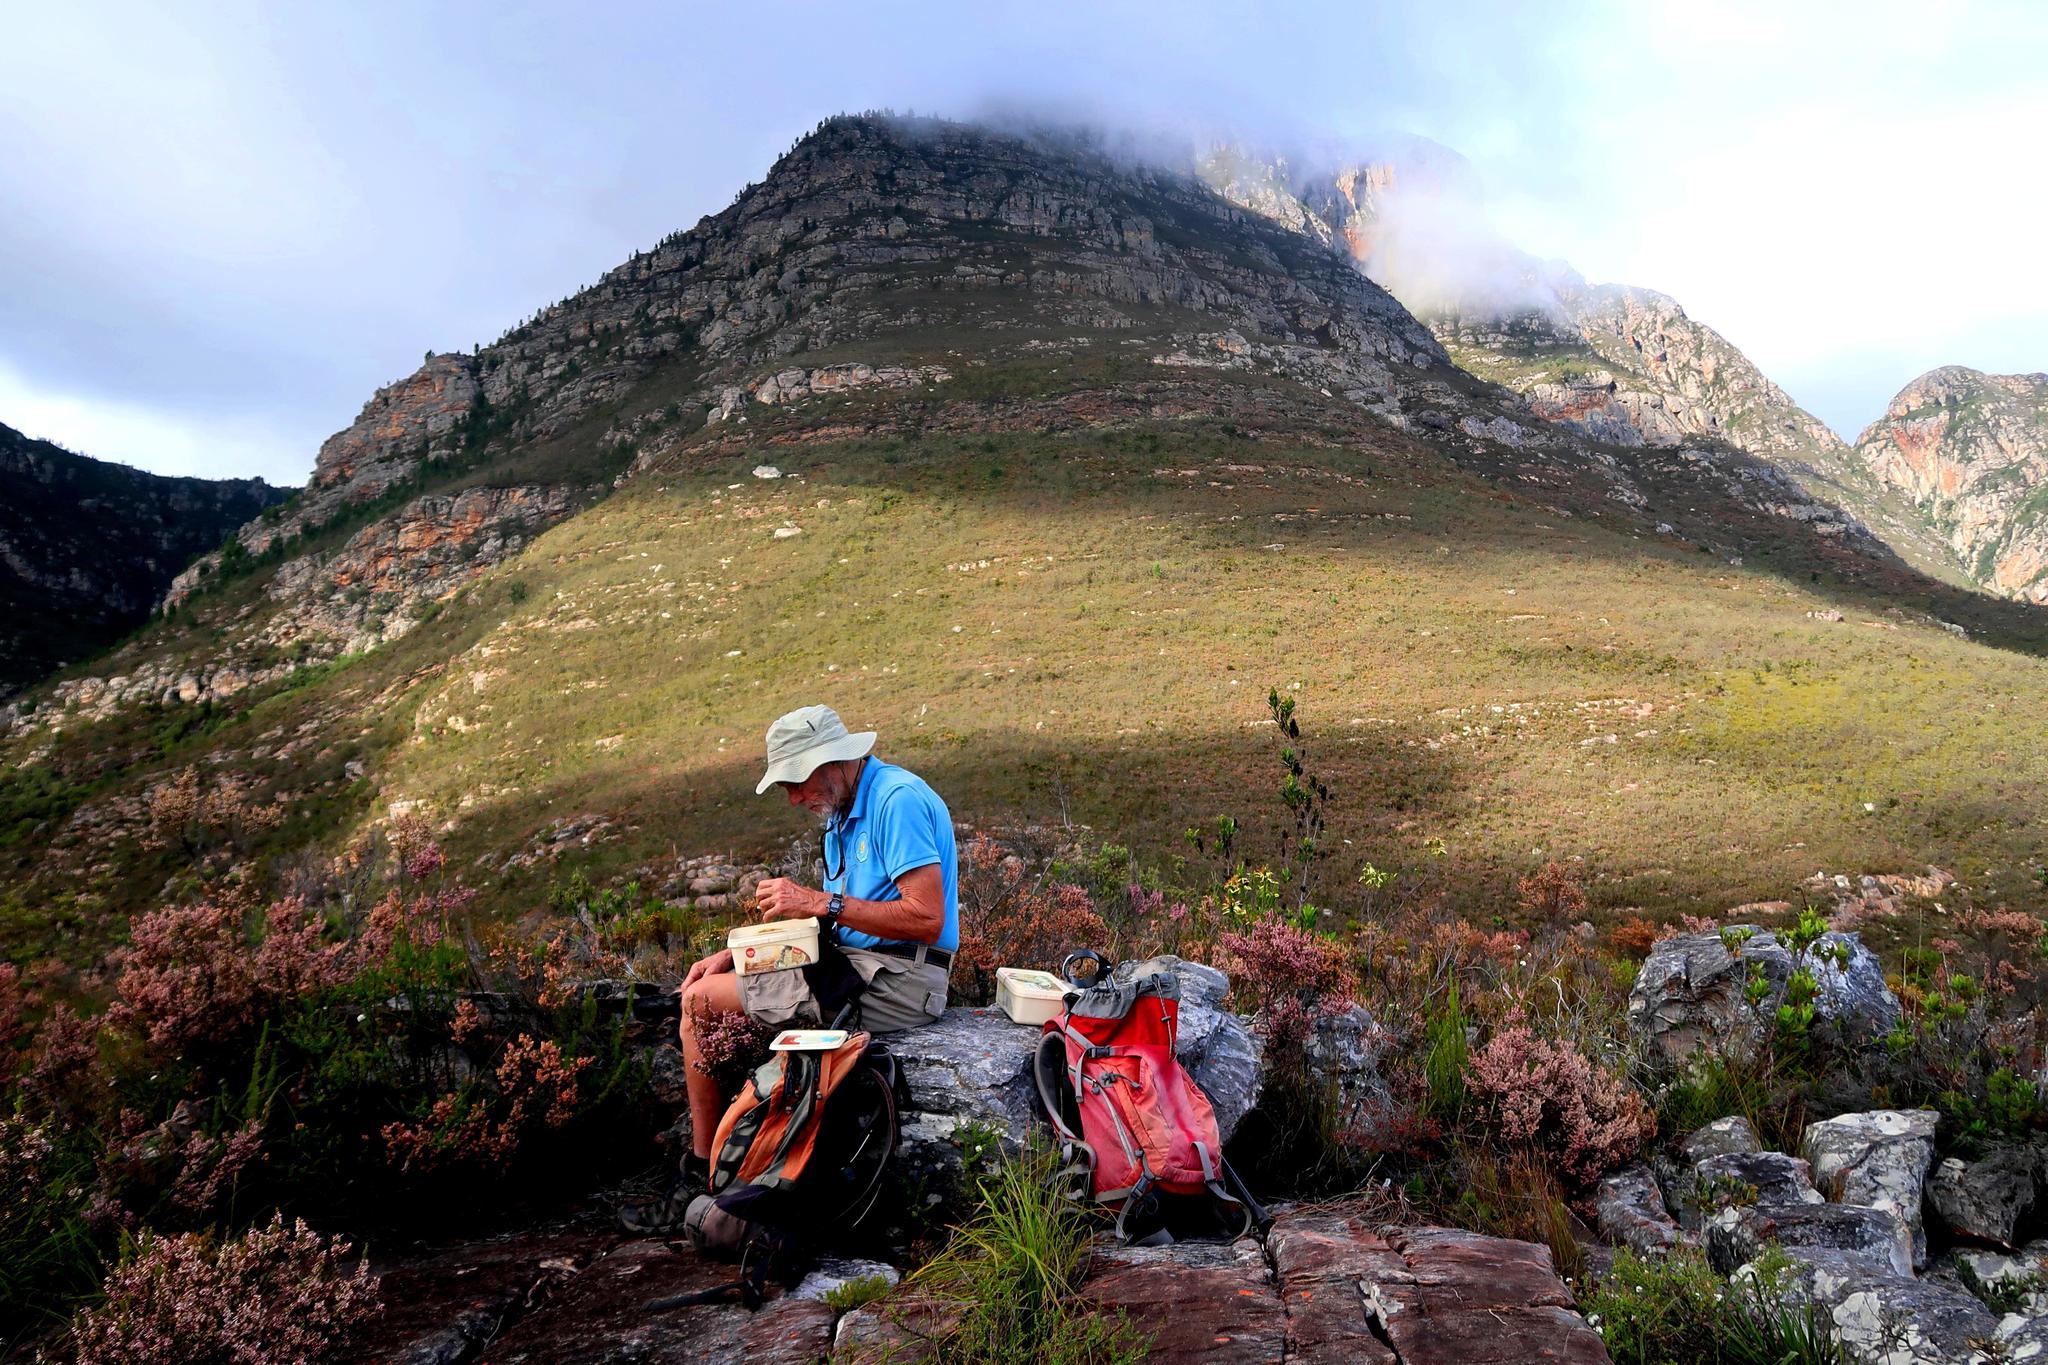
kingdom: Plantae
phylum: Tracheophyta
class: Magnoliopsida
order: Ericales
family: Ericaceae
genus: Erica
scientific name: Erica uberiflora
